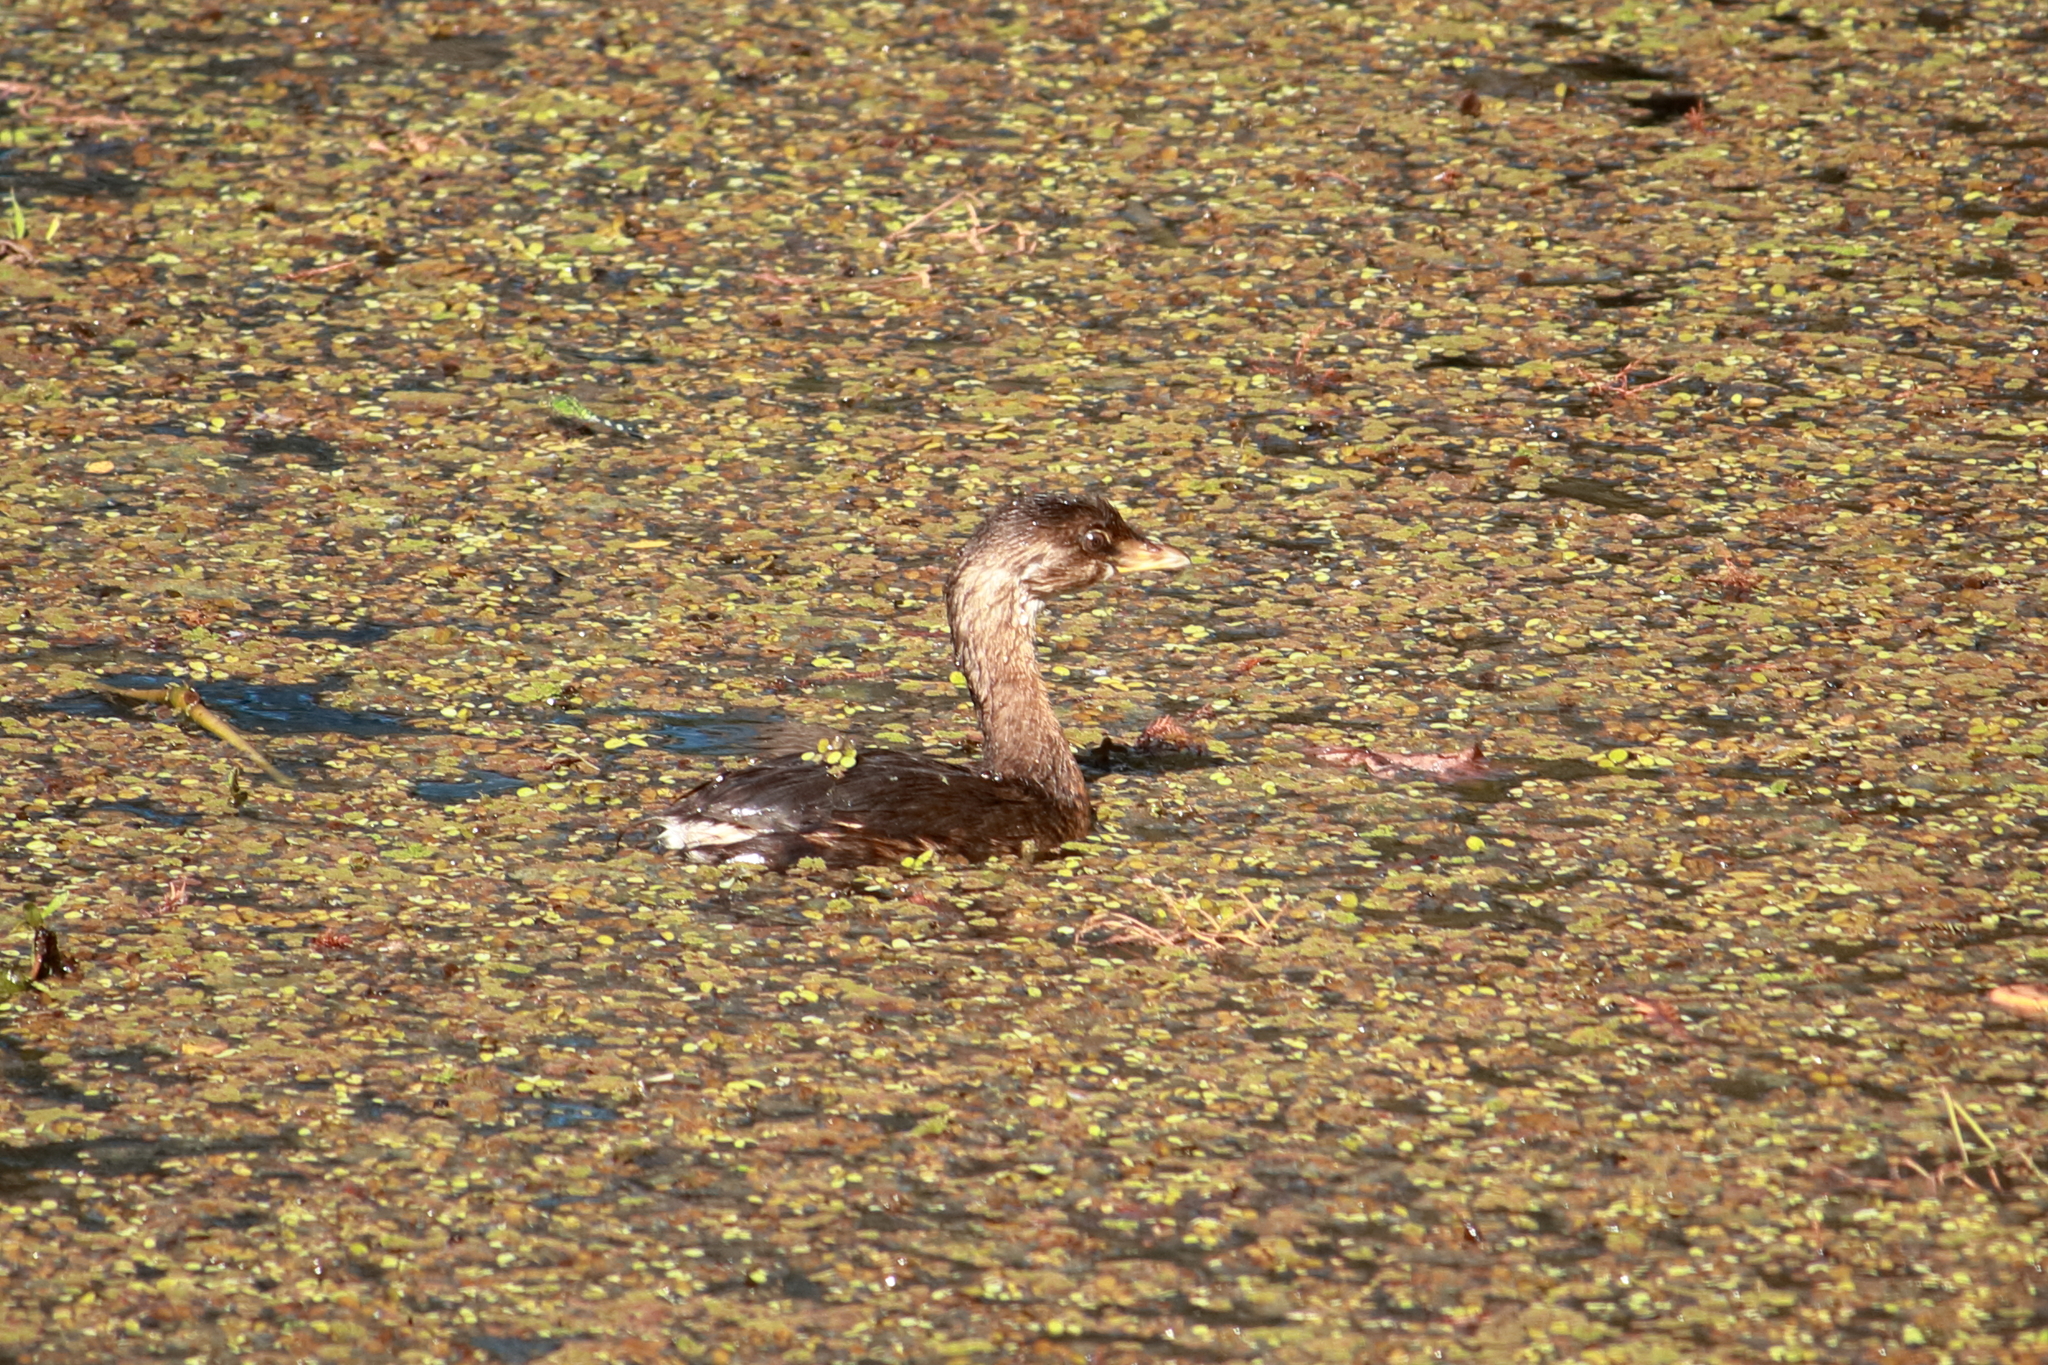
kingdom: Animalia
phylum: Chordata
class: Aves
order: Podicipediformes
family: Podicipedidae
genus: Podilymbus
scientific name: Podilymbus podiceps
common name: Pied-billed grebe
